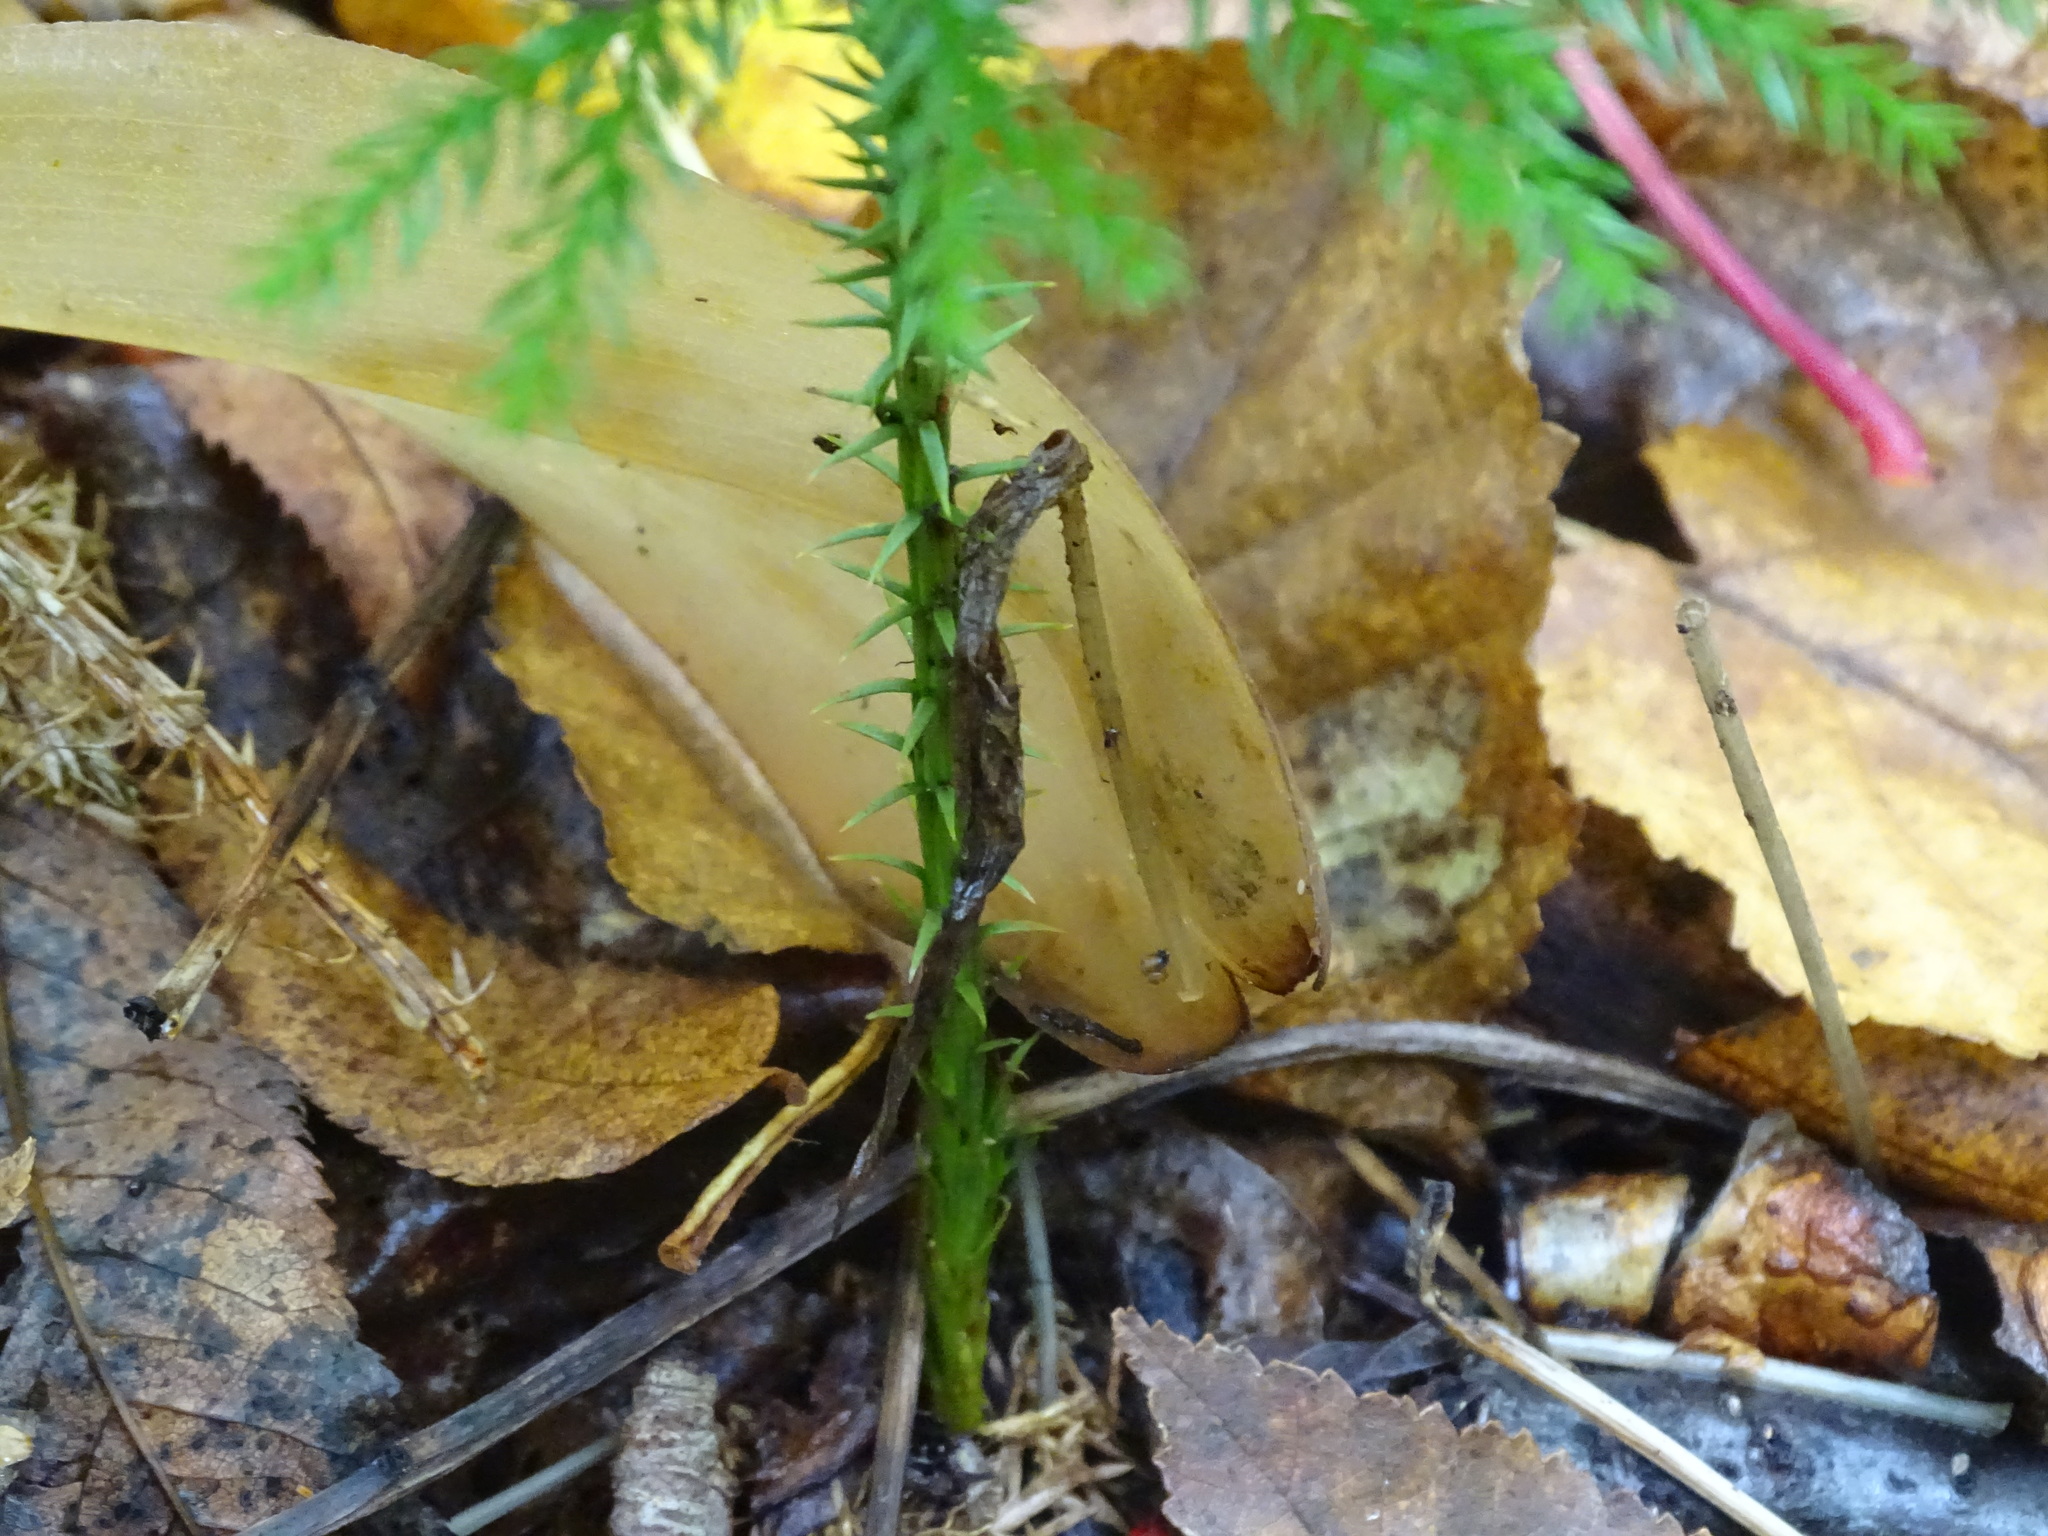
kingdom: Plantae
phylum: Tracheophyta
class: Lycopodiopsida
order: Lycopodiales
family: Lycopodiaceae
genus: Dendrolycopodium
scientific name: Dendrolycopodium dendroideum
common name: Northern tree-clubmoss
